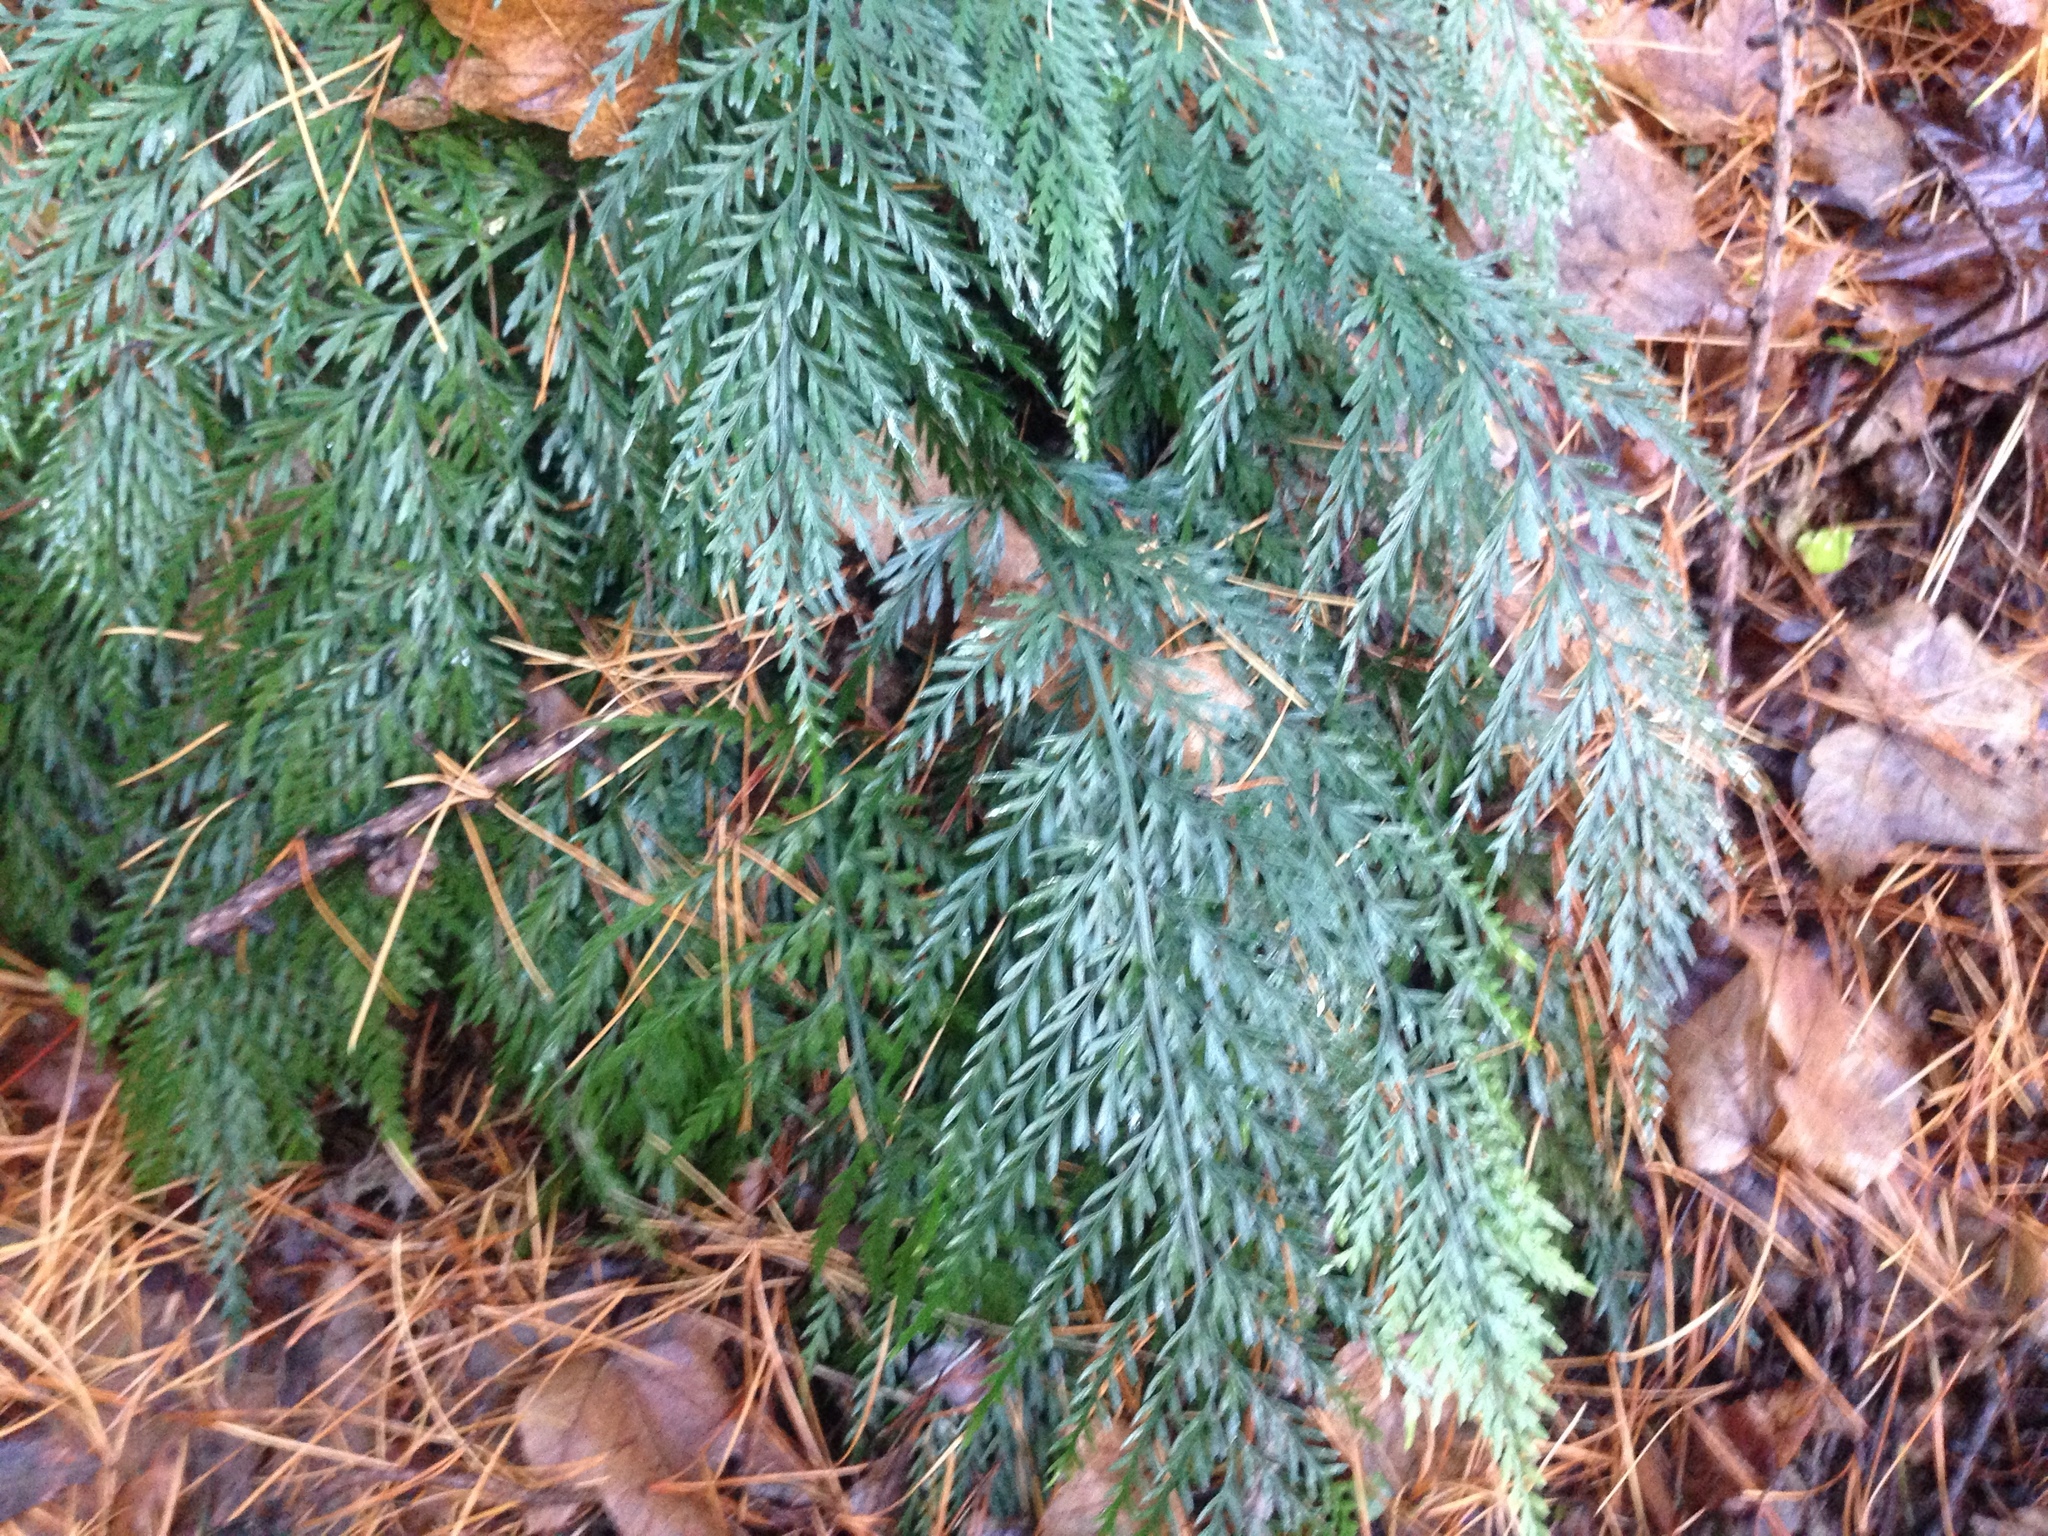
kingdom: Plantae
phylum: Tracheophyta
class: Polypodiopsida
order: Polypodiales
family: Aspleniaceae
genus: Asplenium
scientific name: Asplenium appendiculatum
